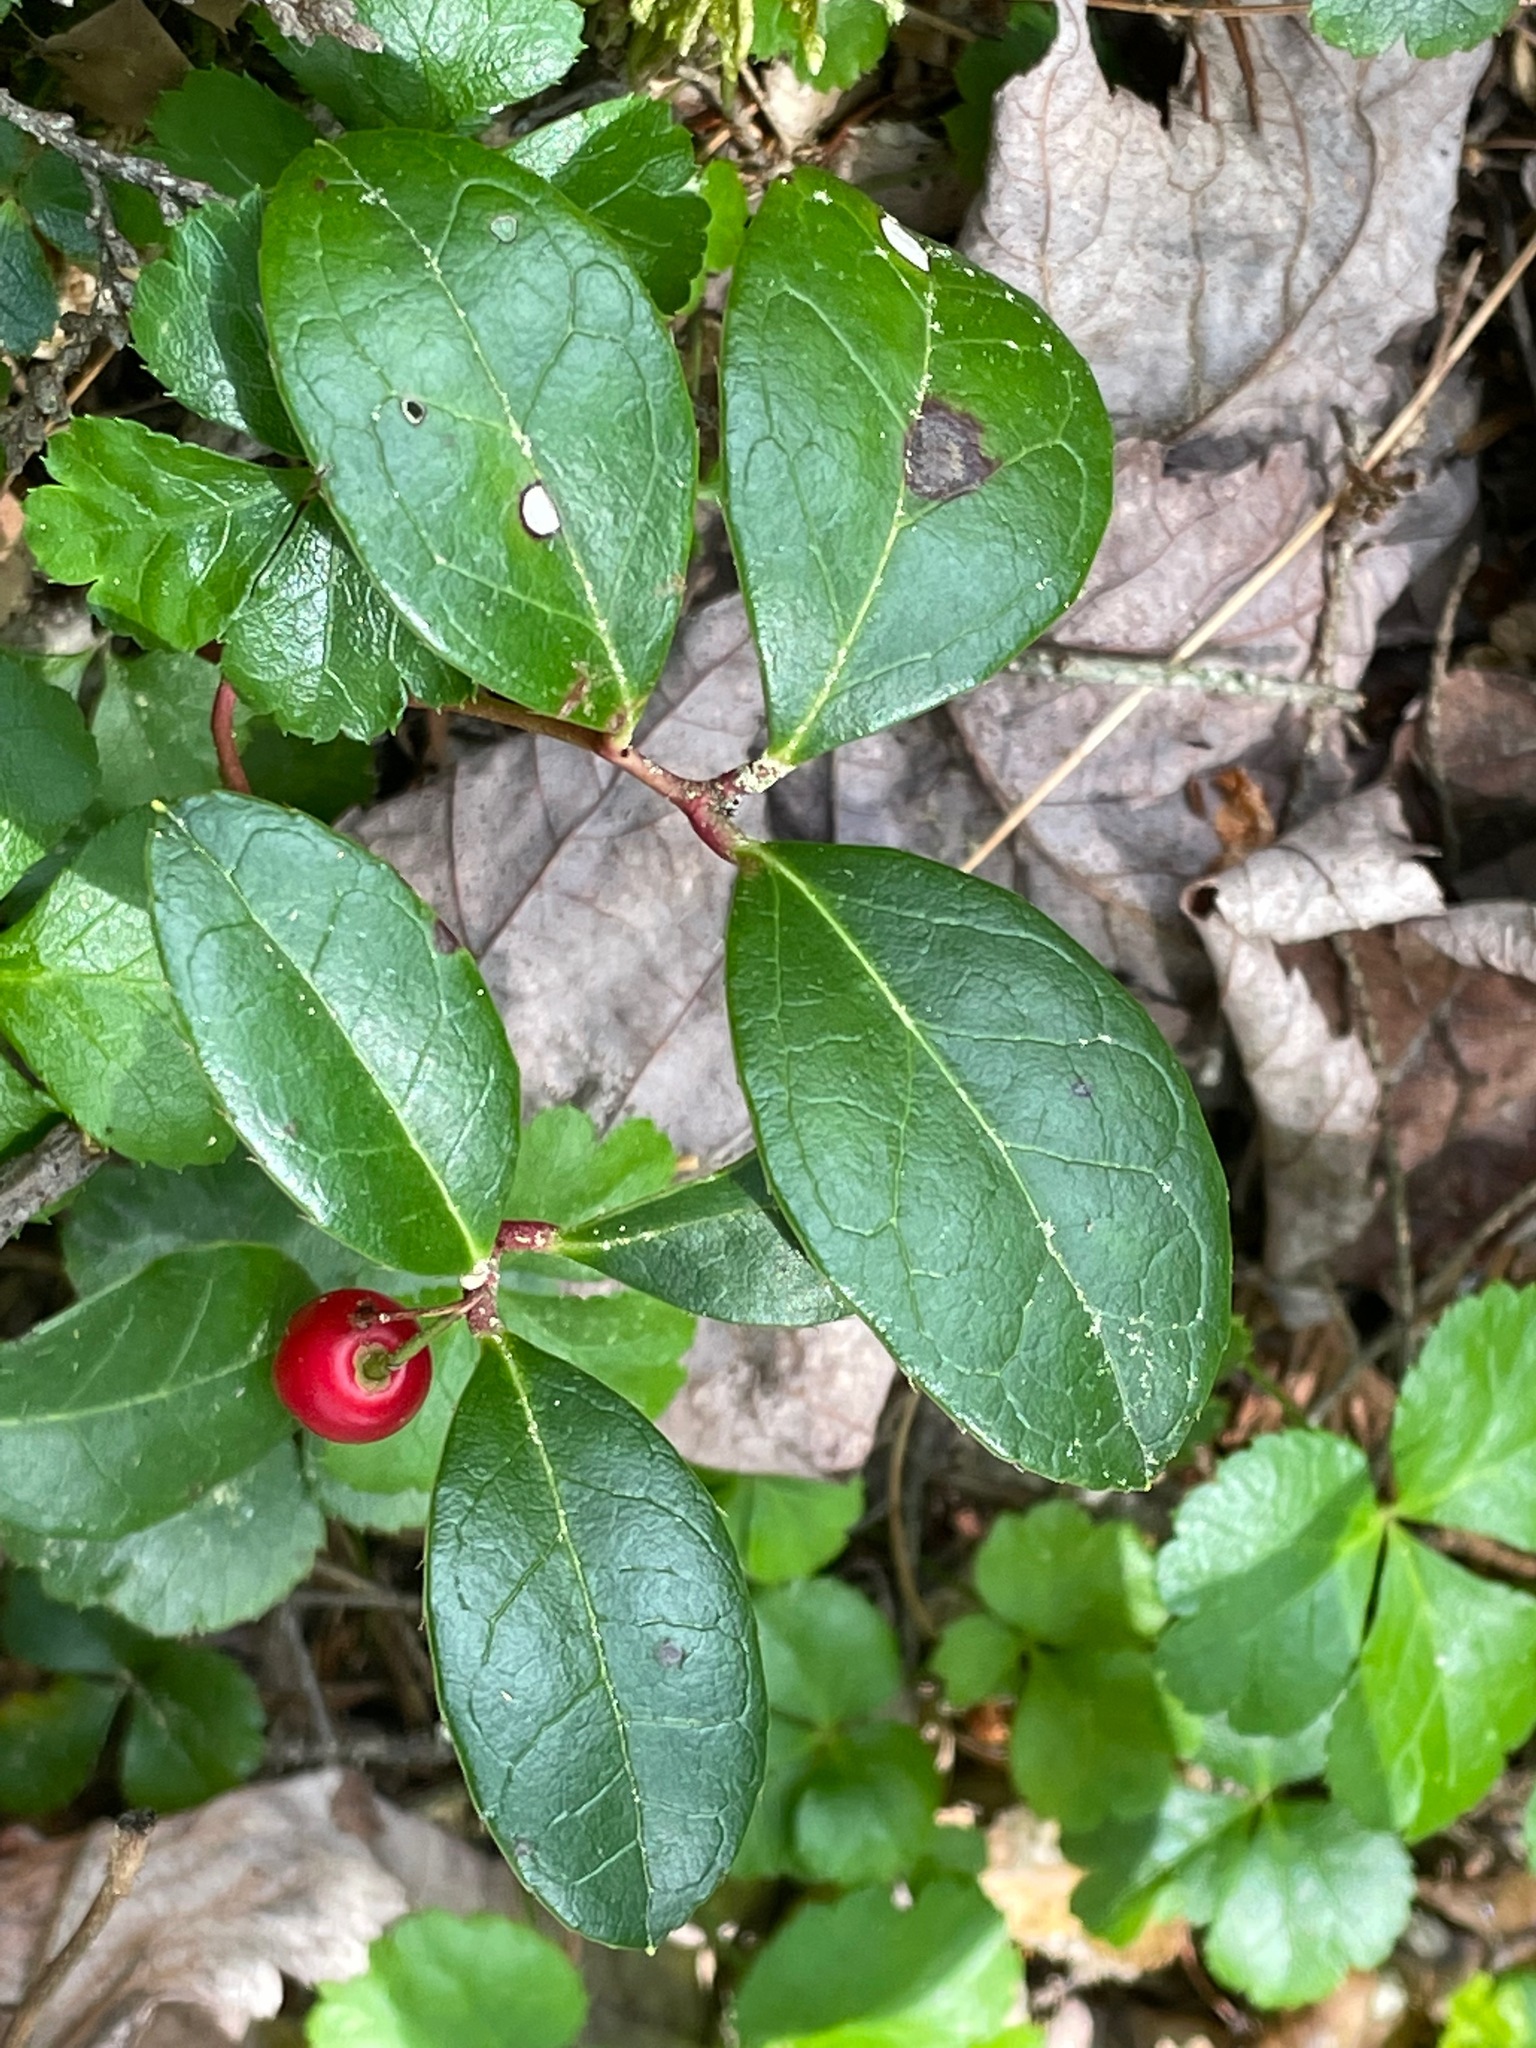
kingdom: Plantae
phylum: Tracheophyta
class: Magnoliopsida
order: Ericales
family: Ericaceae
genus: Gaultheria
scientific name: Gaultheria procumbens
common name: Checkerberry
